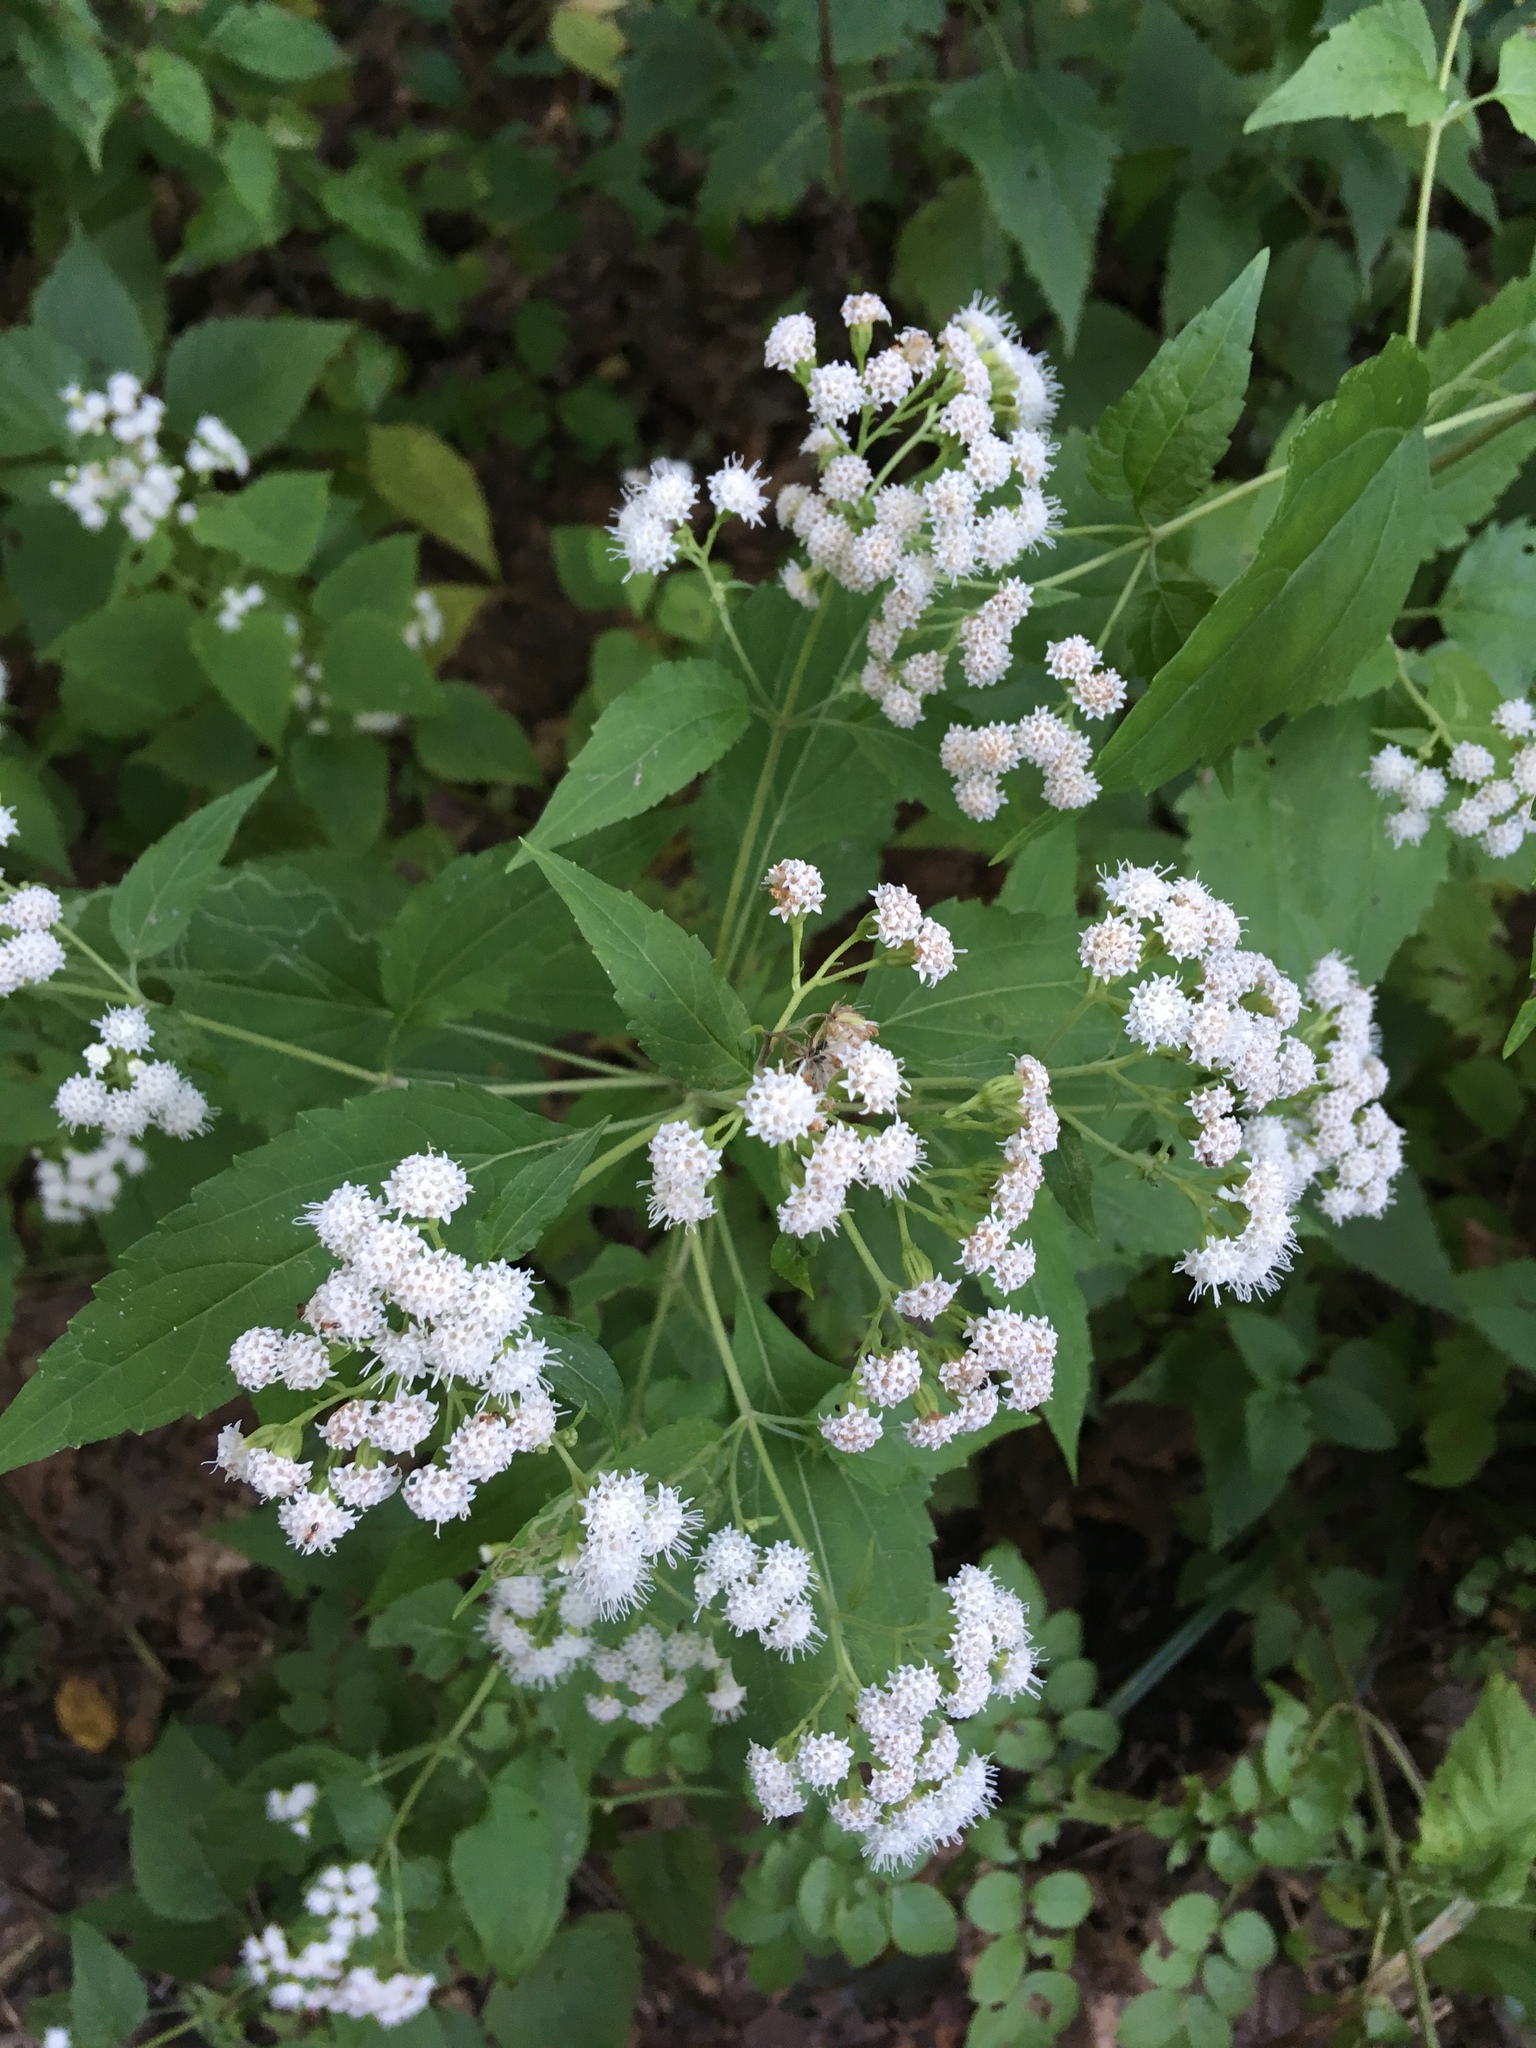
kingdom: Plantae
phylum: Tracheophyta
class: Magnoliopsida
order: Asterales
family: Asteraceae
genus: Ageratina
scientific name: Ageratina altissima
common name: White snakeroot
